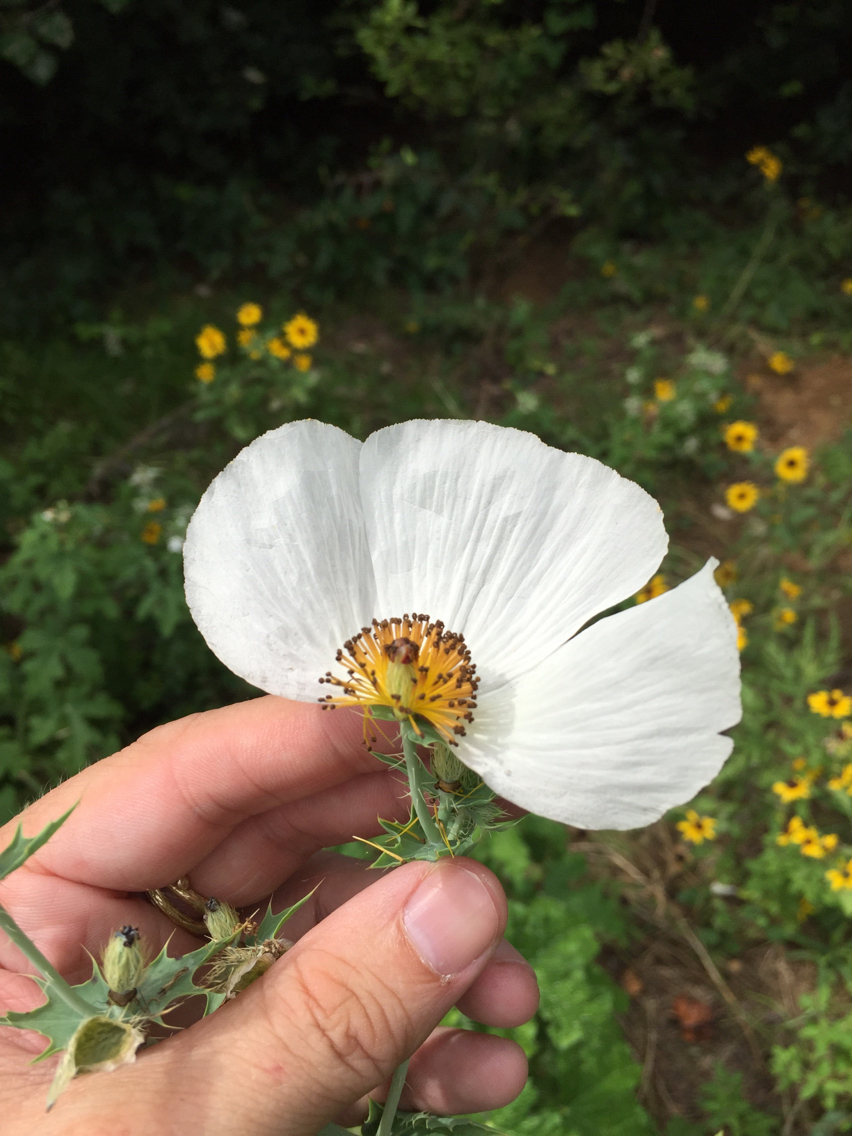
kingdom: Plantae
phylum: Tracheophyta
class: Magnoliopsida
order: Ranunculales
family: Papaveraceae
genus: Argemone
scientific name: Argemone albiflora
